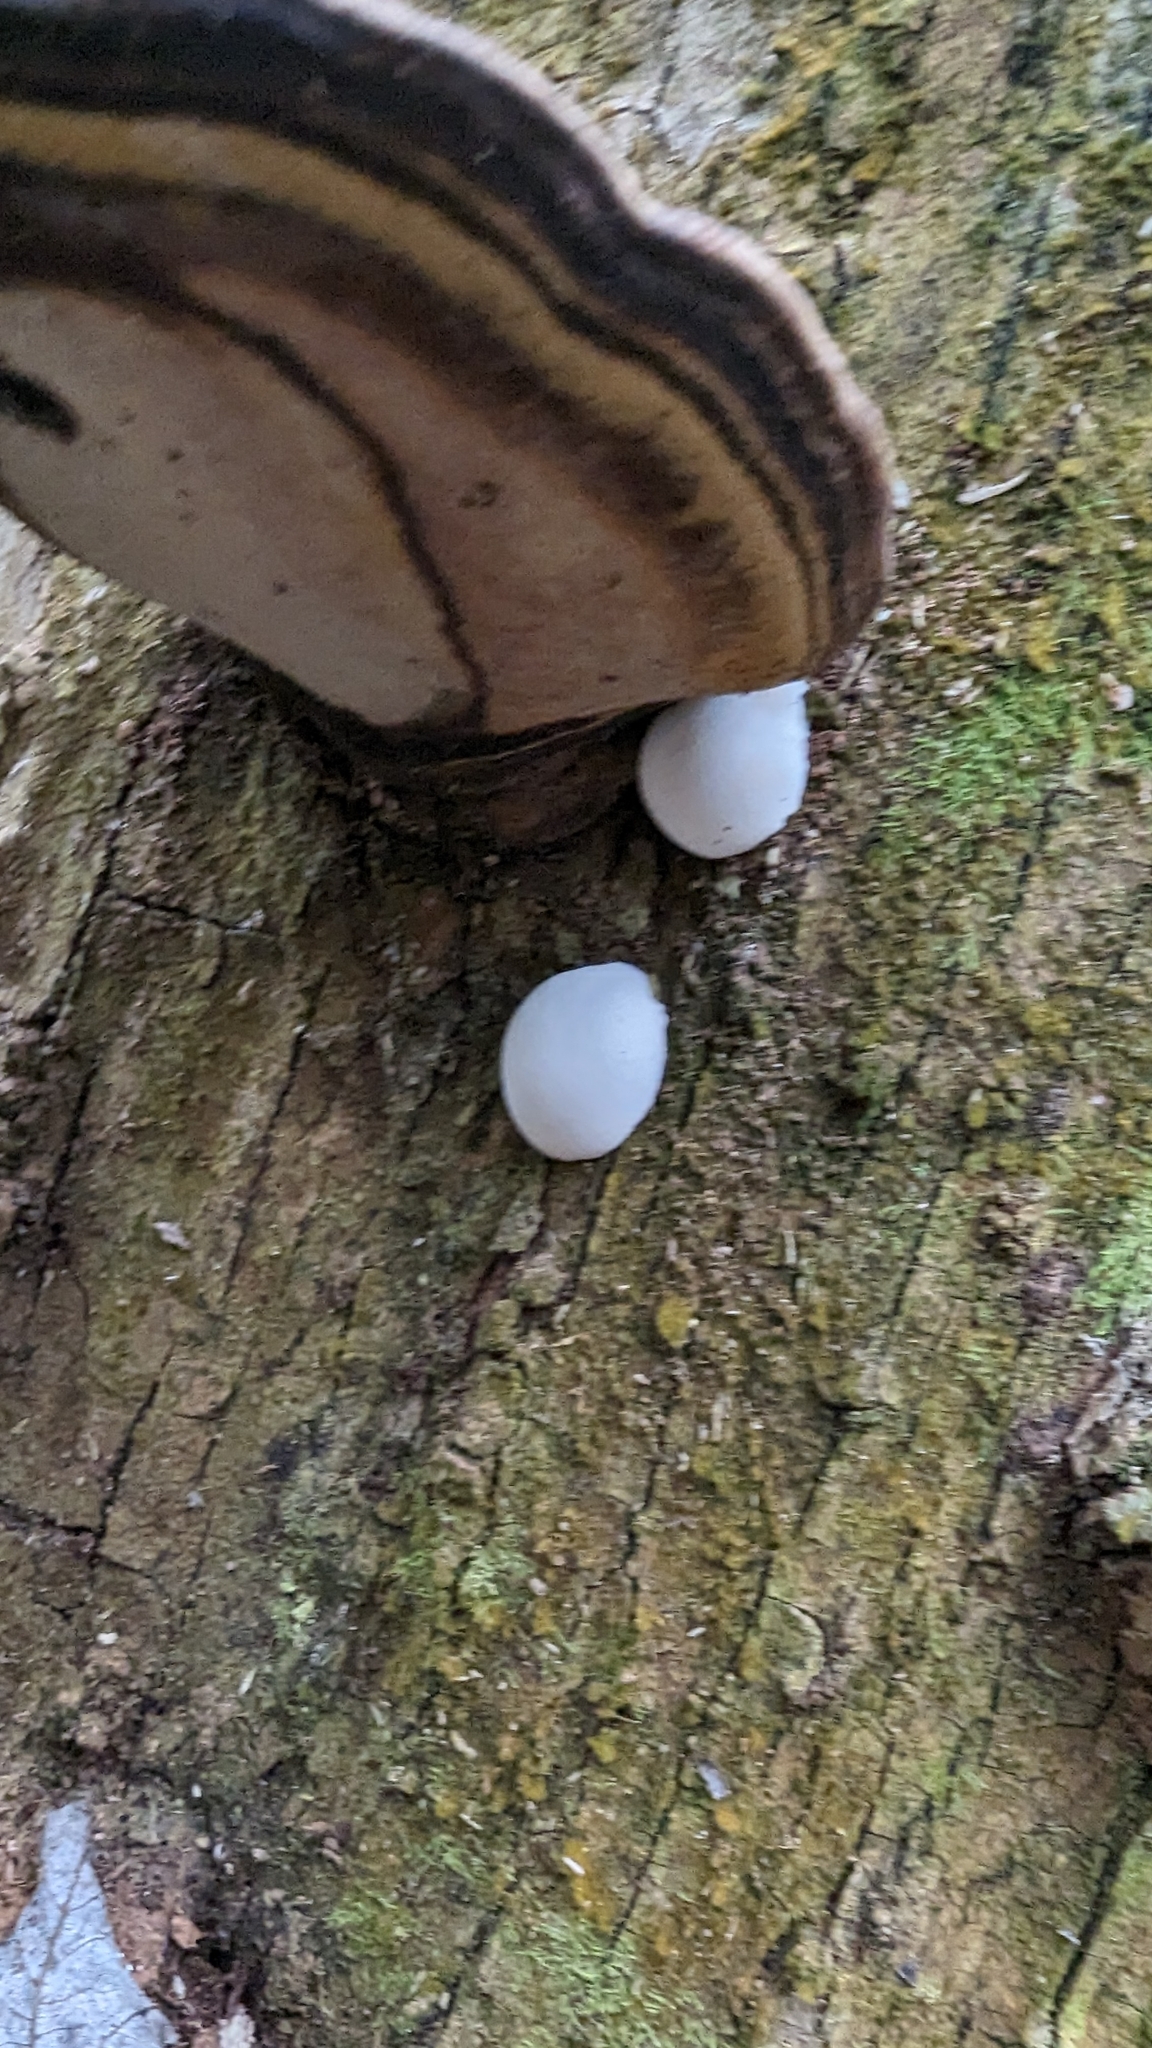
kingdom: Protozoa
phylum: Mycetozoa
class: Myxomycetes
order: Cribrariales
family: Tubiferaceae
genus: Reticularia
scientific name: Reticularia lycoperdon
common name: False puffball
